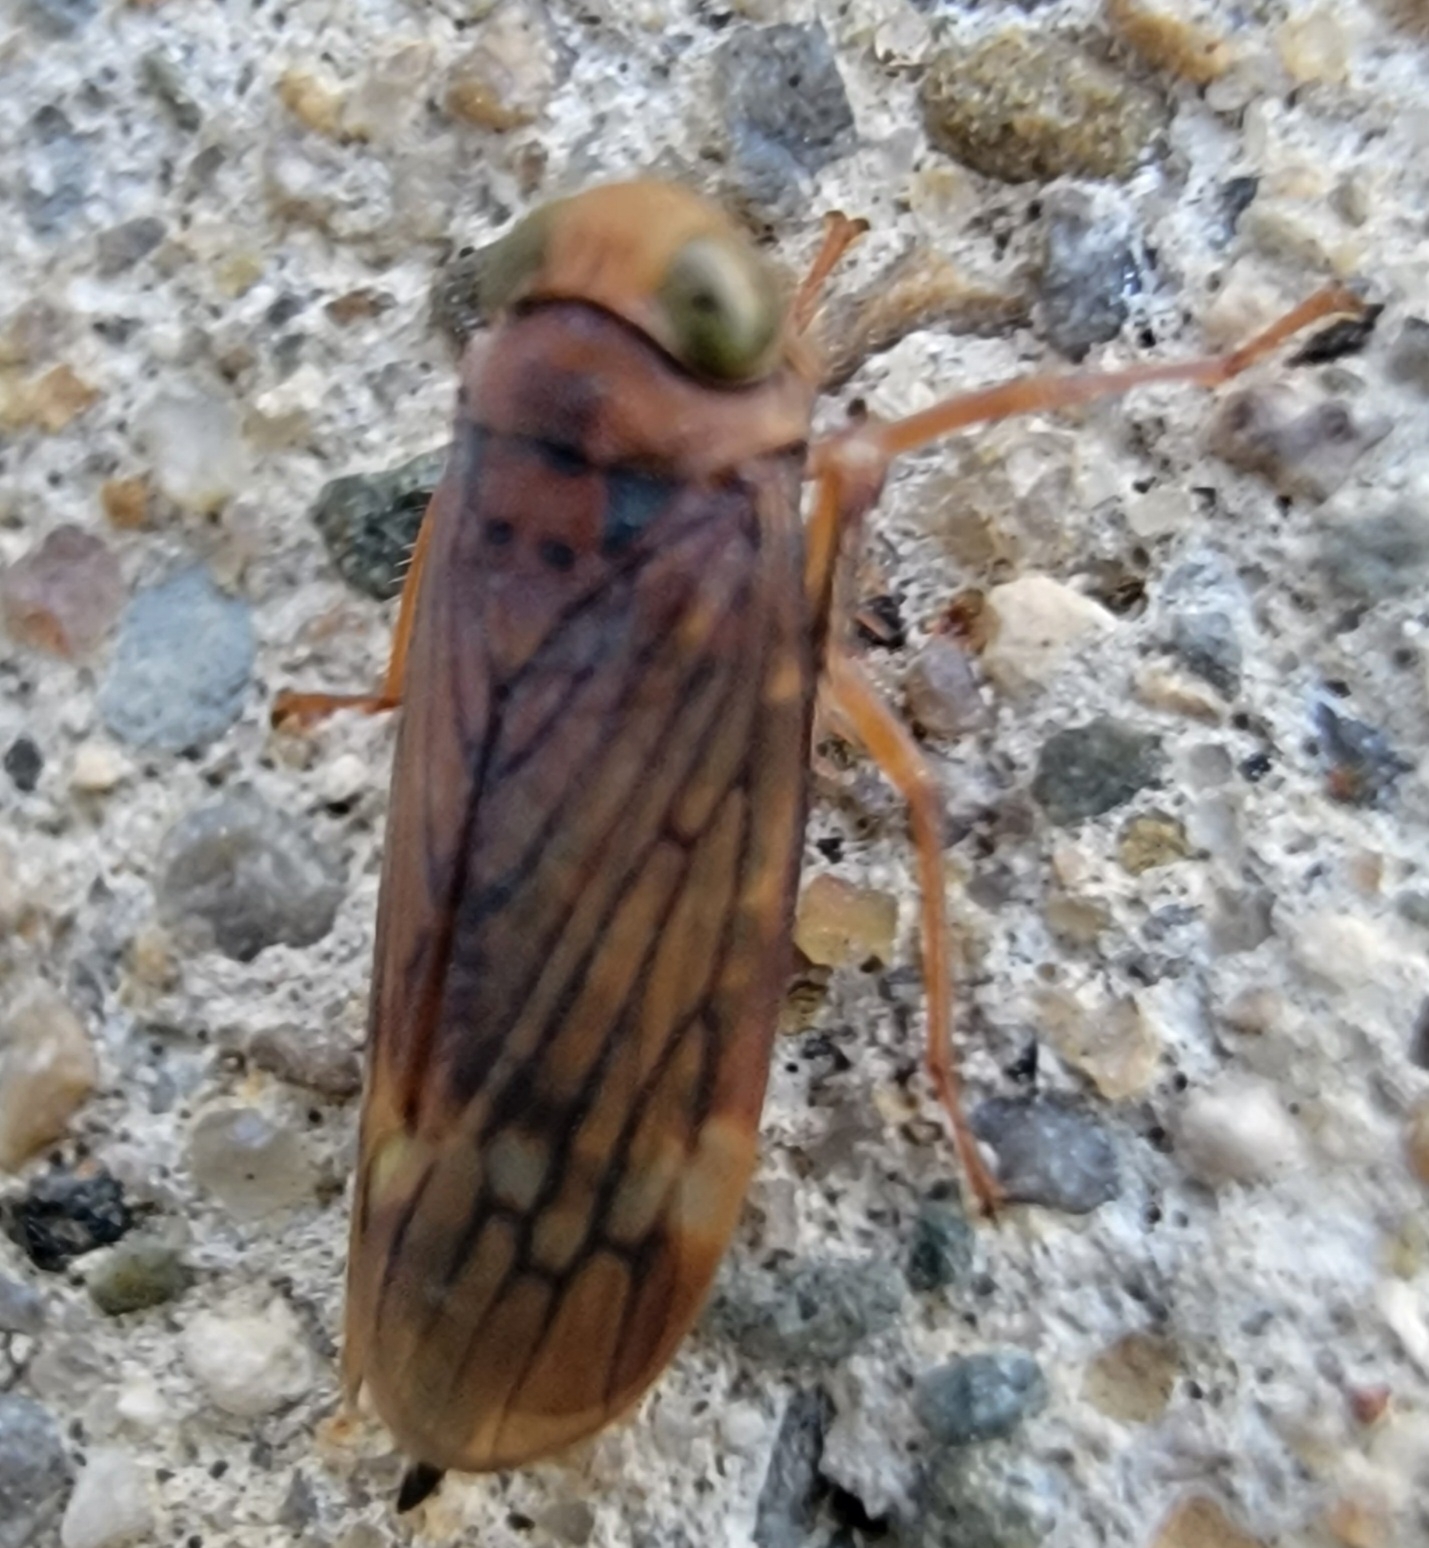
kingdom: Animalia
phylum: Arthropoda
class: Insecta
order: Hemiptera
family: Cicadellidae
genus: Jikradia
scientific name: Jikradia olitoria
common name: Coppery leafhopper
